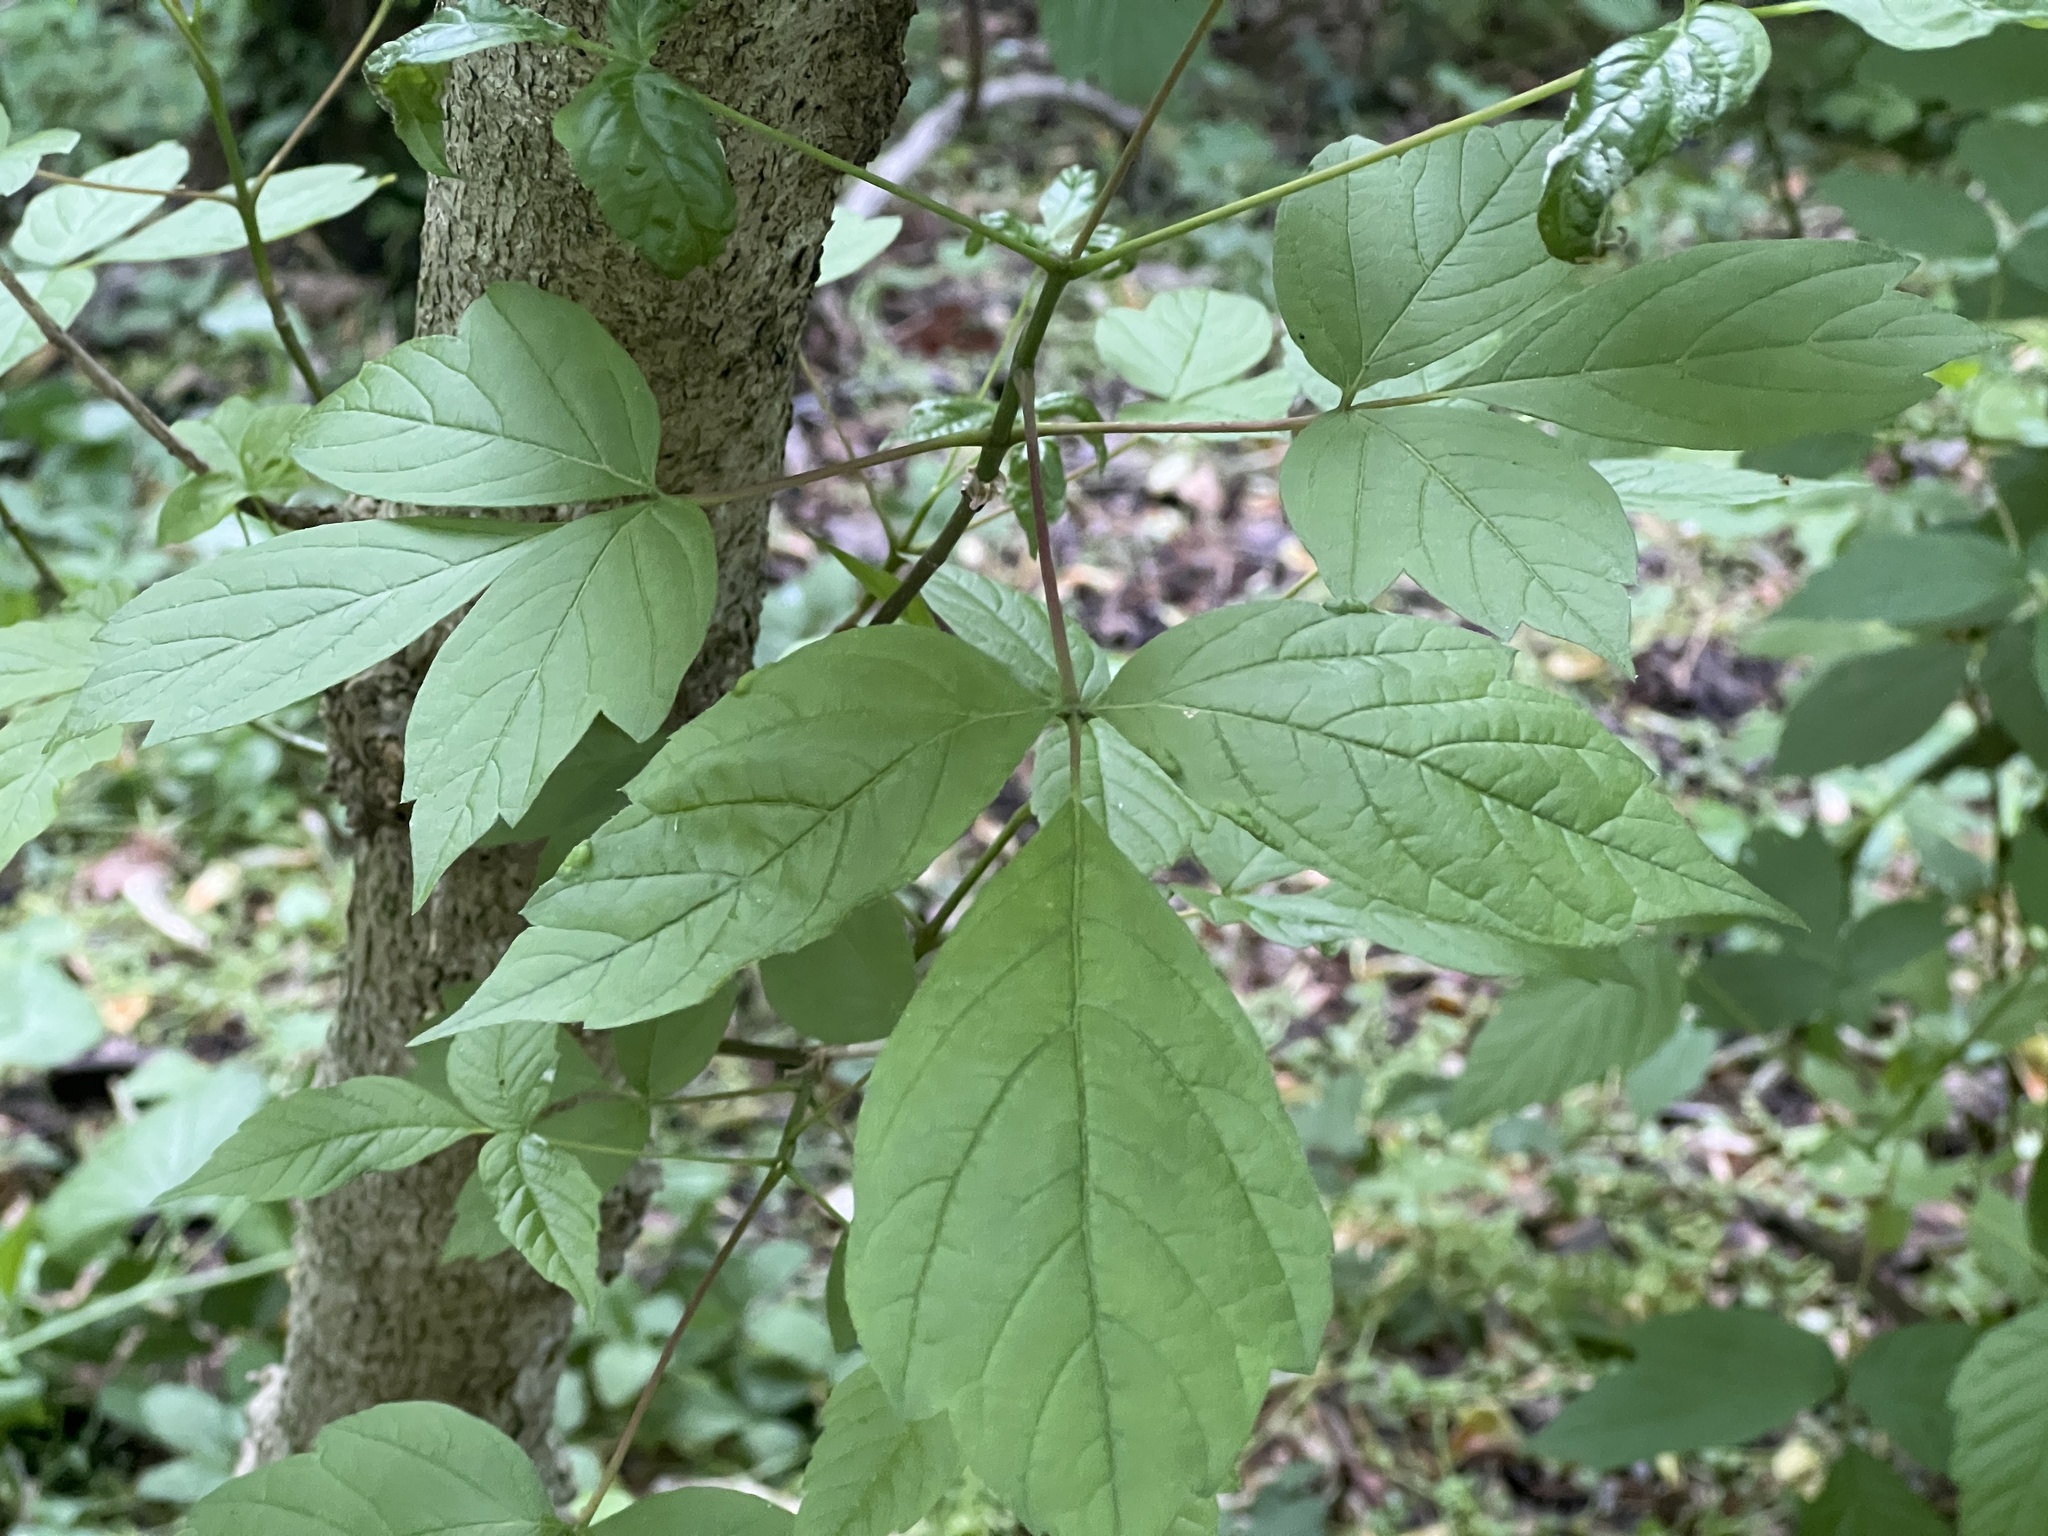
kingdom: Plantae
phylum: Tracheophyta
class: Magnoliopsida
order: Sapindales
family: Sapindaceae
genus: Acer
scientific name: Acer negundo
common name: Ashleaf maple
